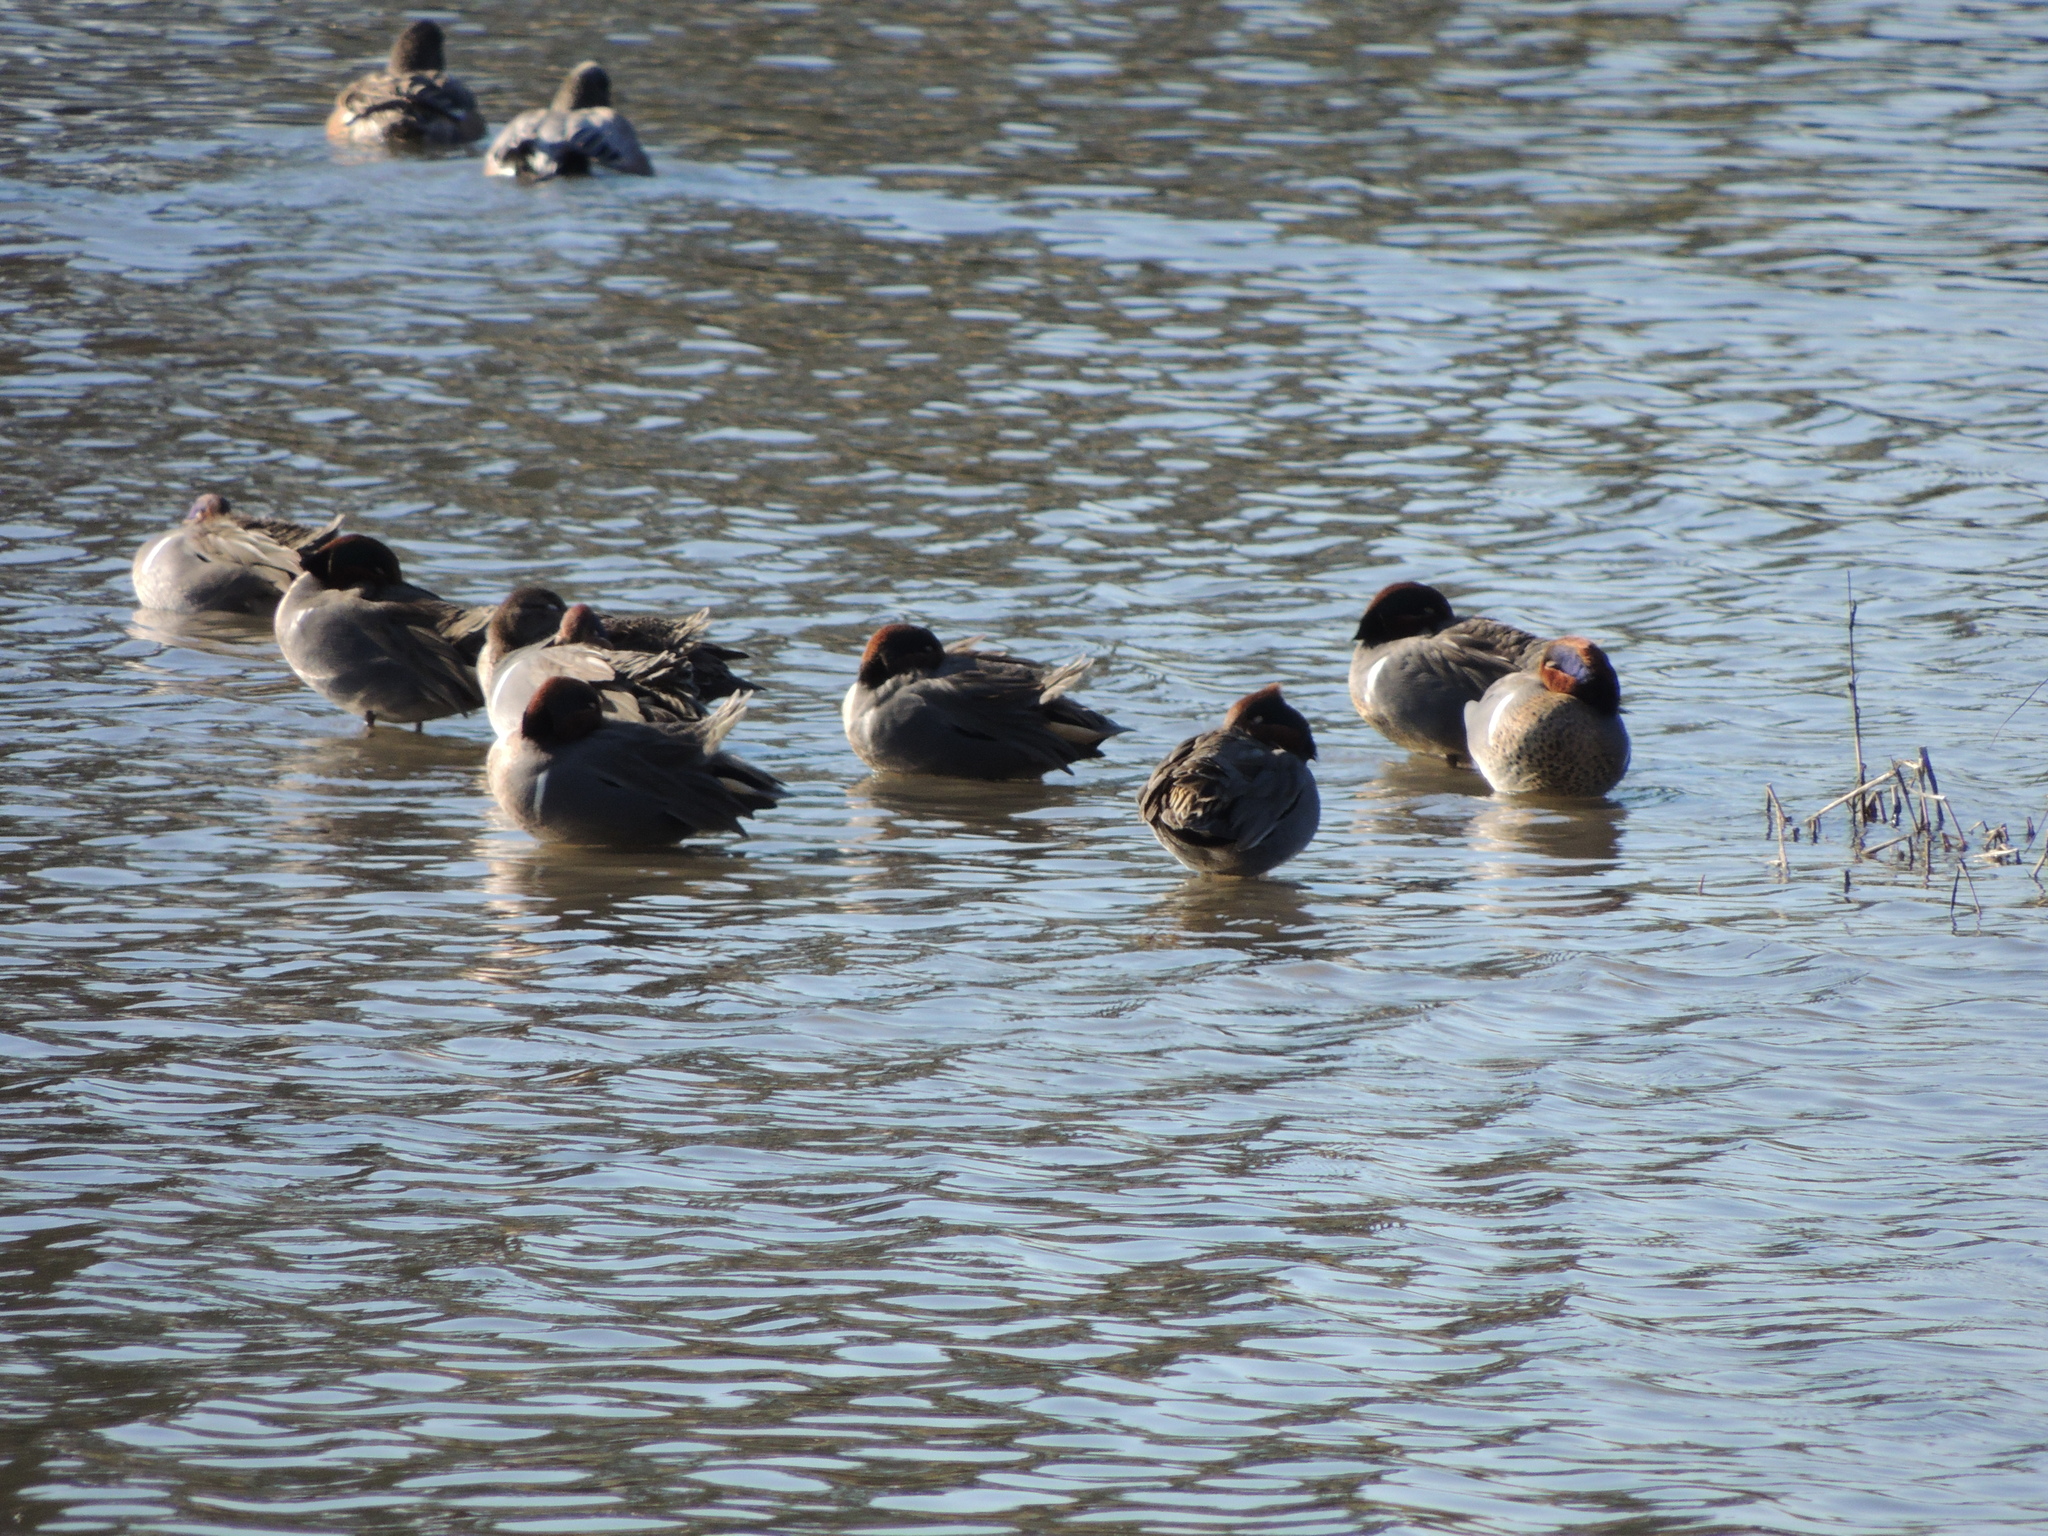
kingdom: Animalia
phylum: Chordata
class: Aves
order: Anseriformes
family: Anatidae
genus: Anas
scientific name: Anas crecca
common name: Eurasian teal
